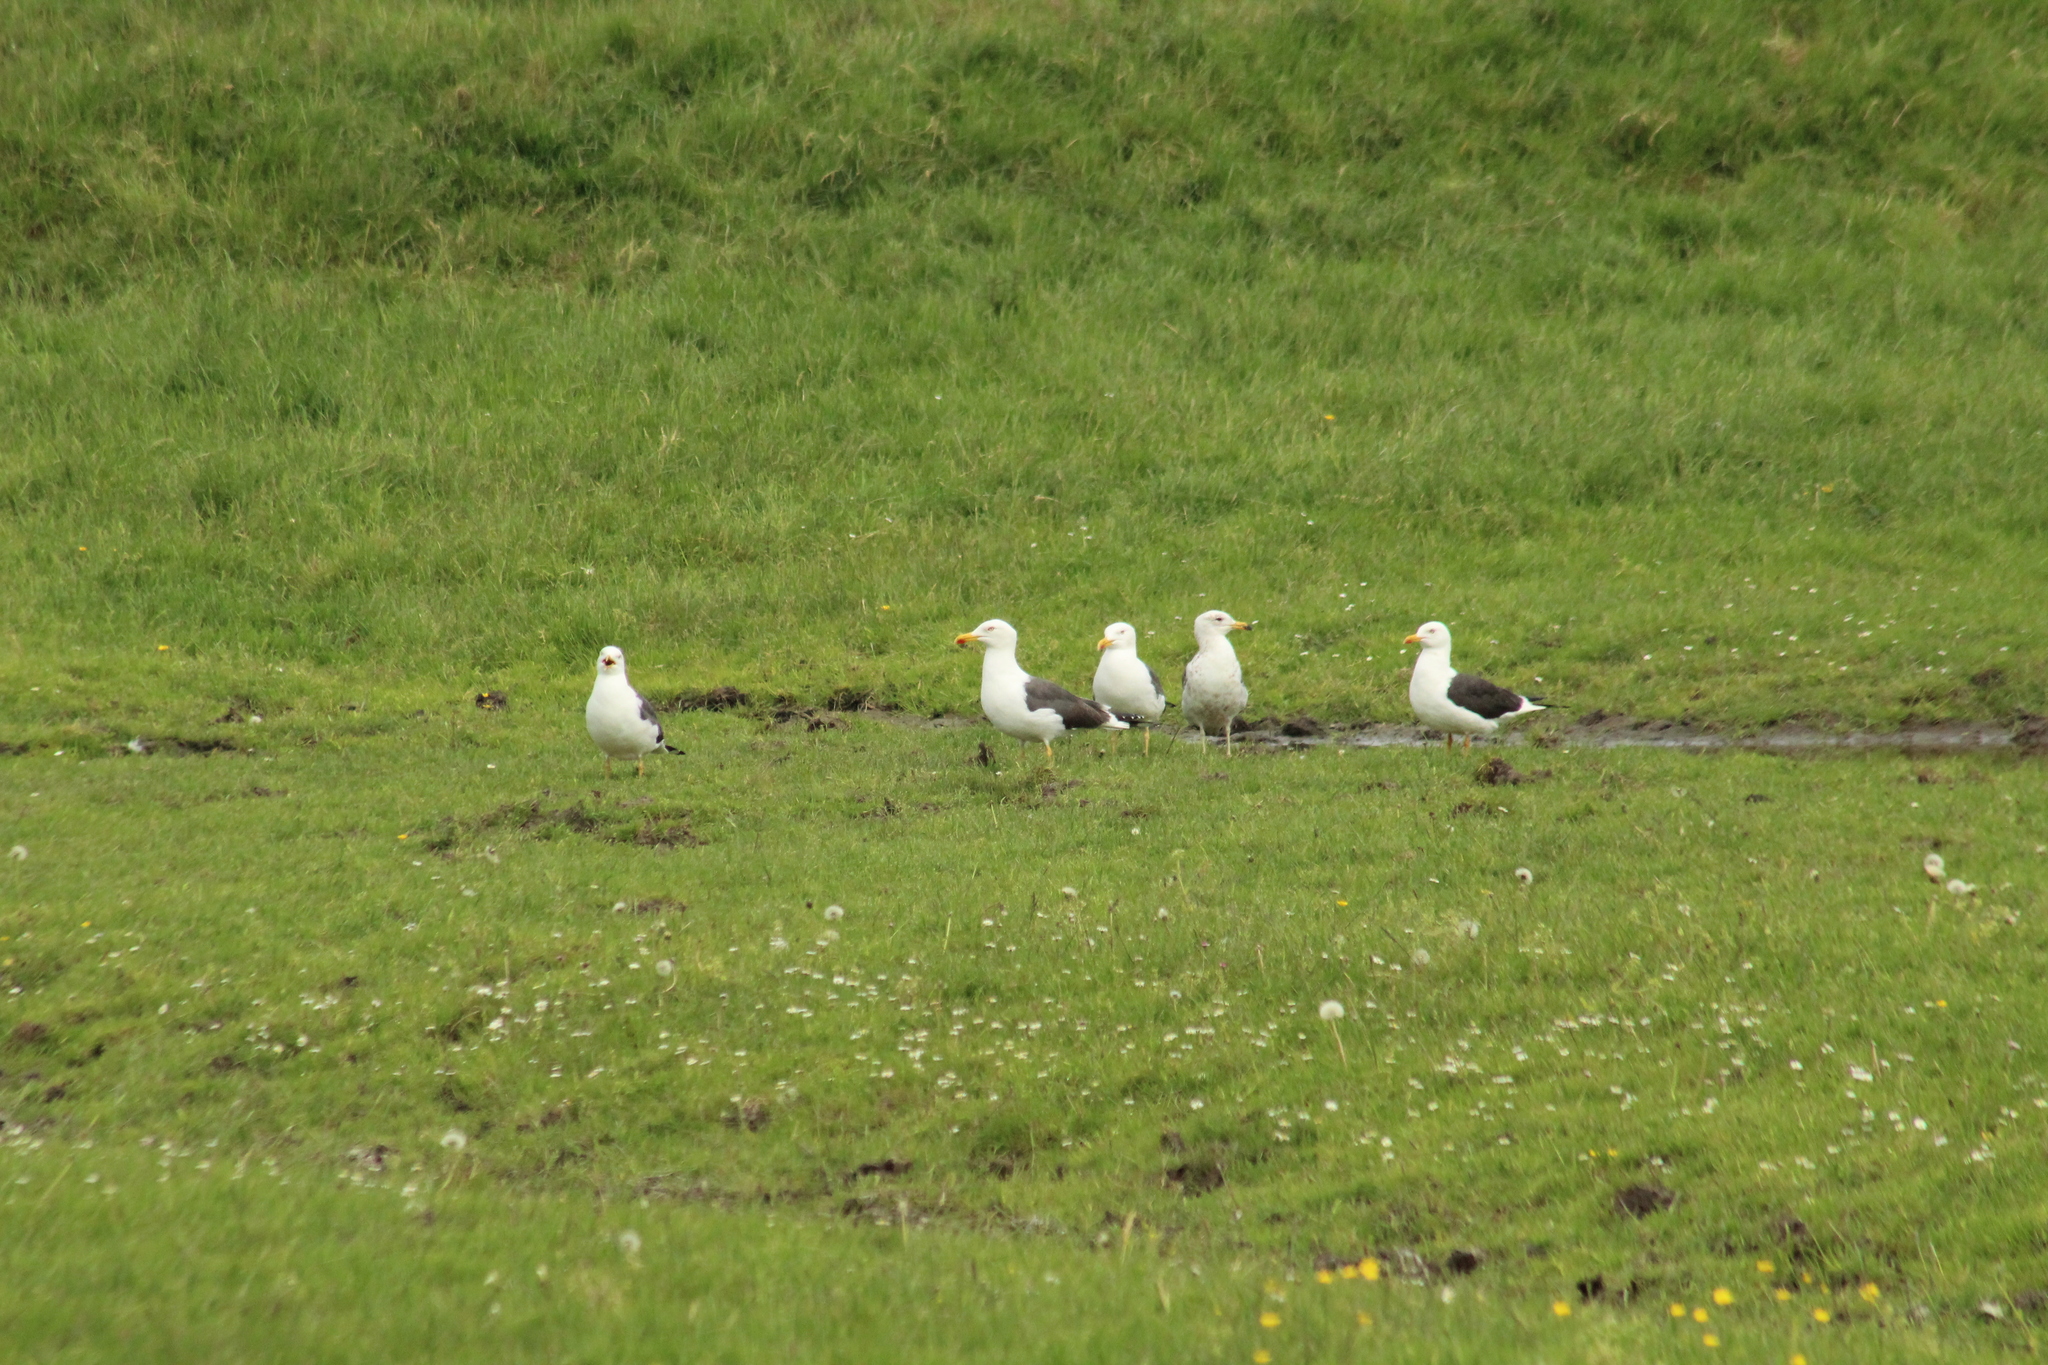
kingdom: Animalia
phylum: Chordata
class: Aves
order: Charadriiformes
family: Laridae
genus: Larus
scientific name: Larus fuscus
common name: Lesser black-backed gull
